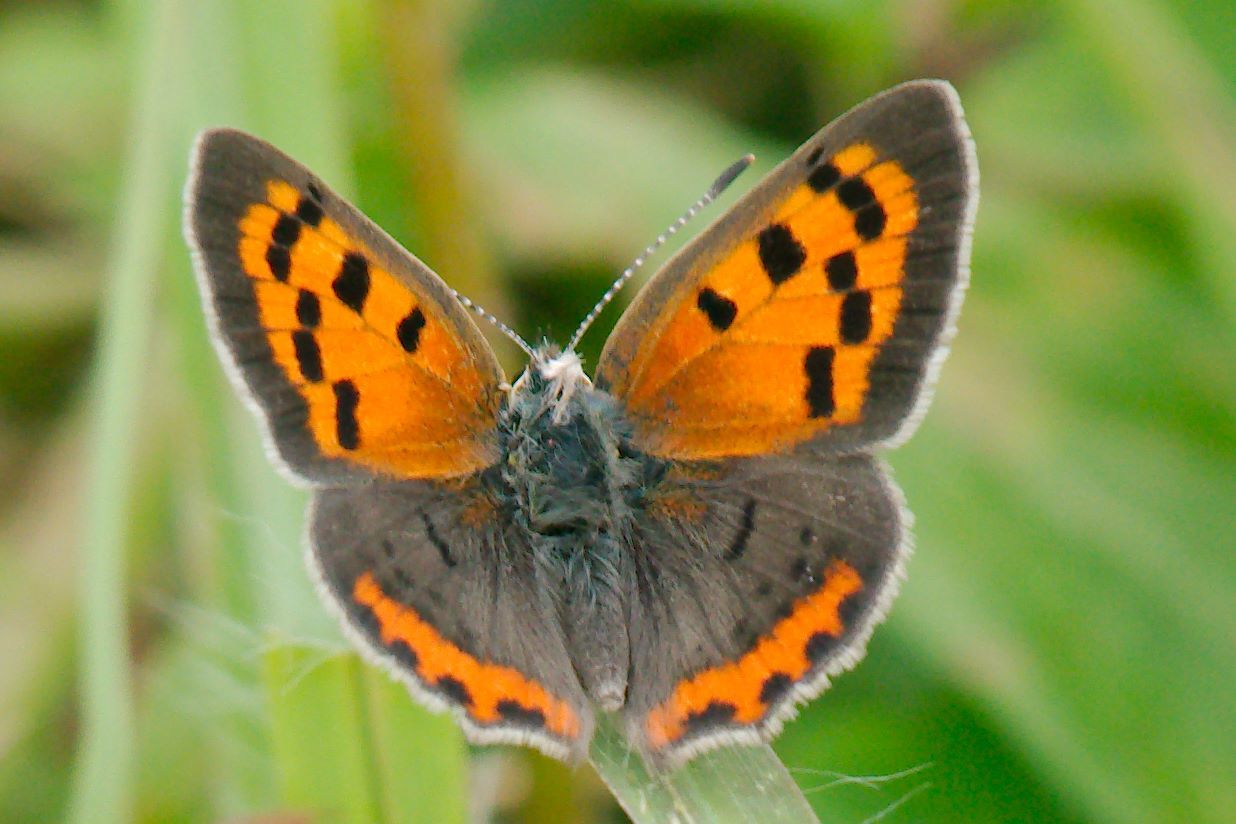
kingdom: Animalia
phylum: Arthropoda
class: Insecta
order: Lepidoptera
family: Lycaenidae
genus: Lycaena
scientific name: Lycaena hypophlaeas
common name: American copper
